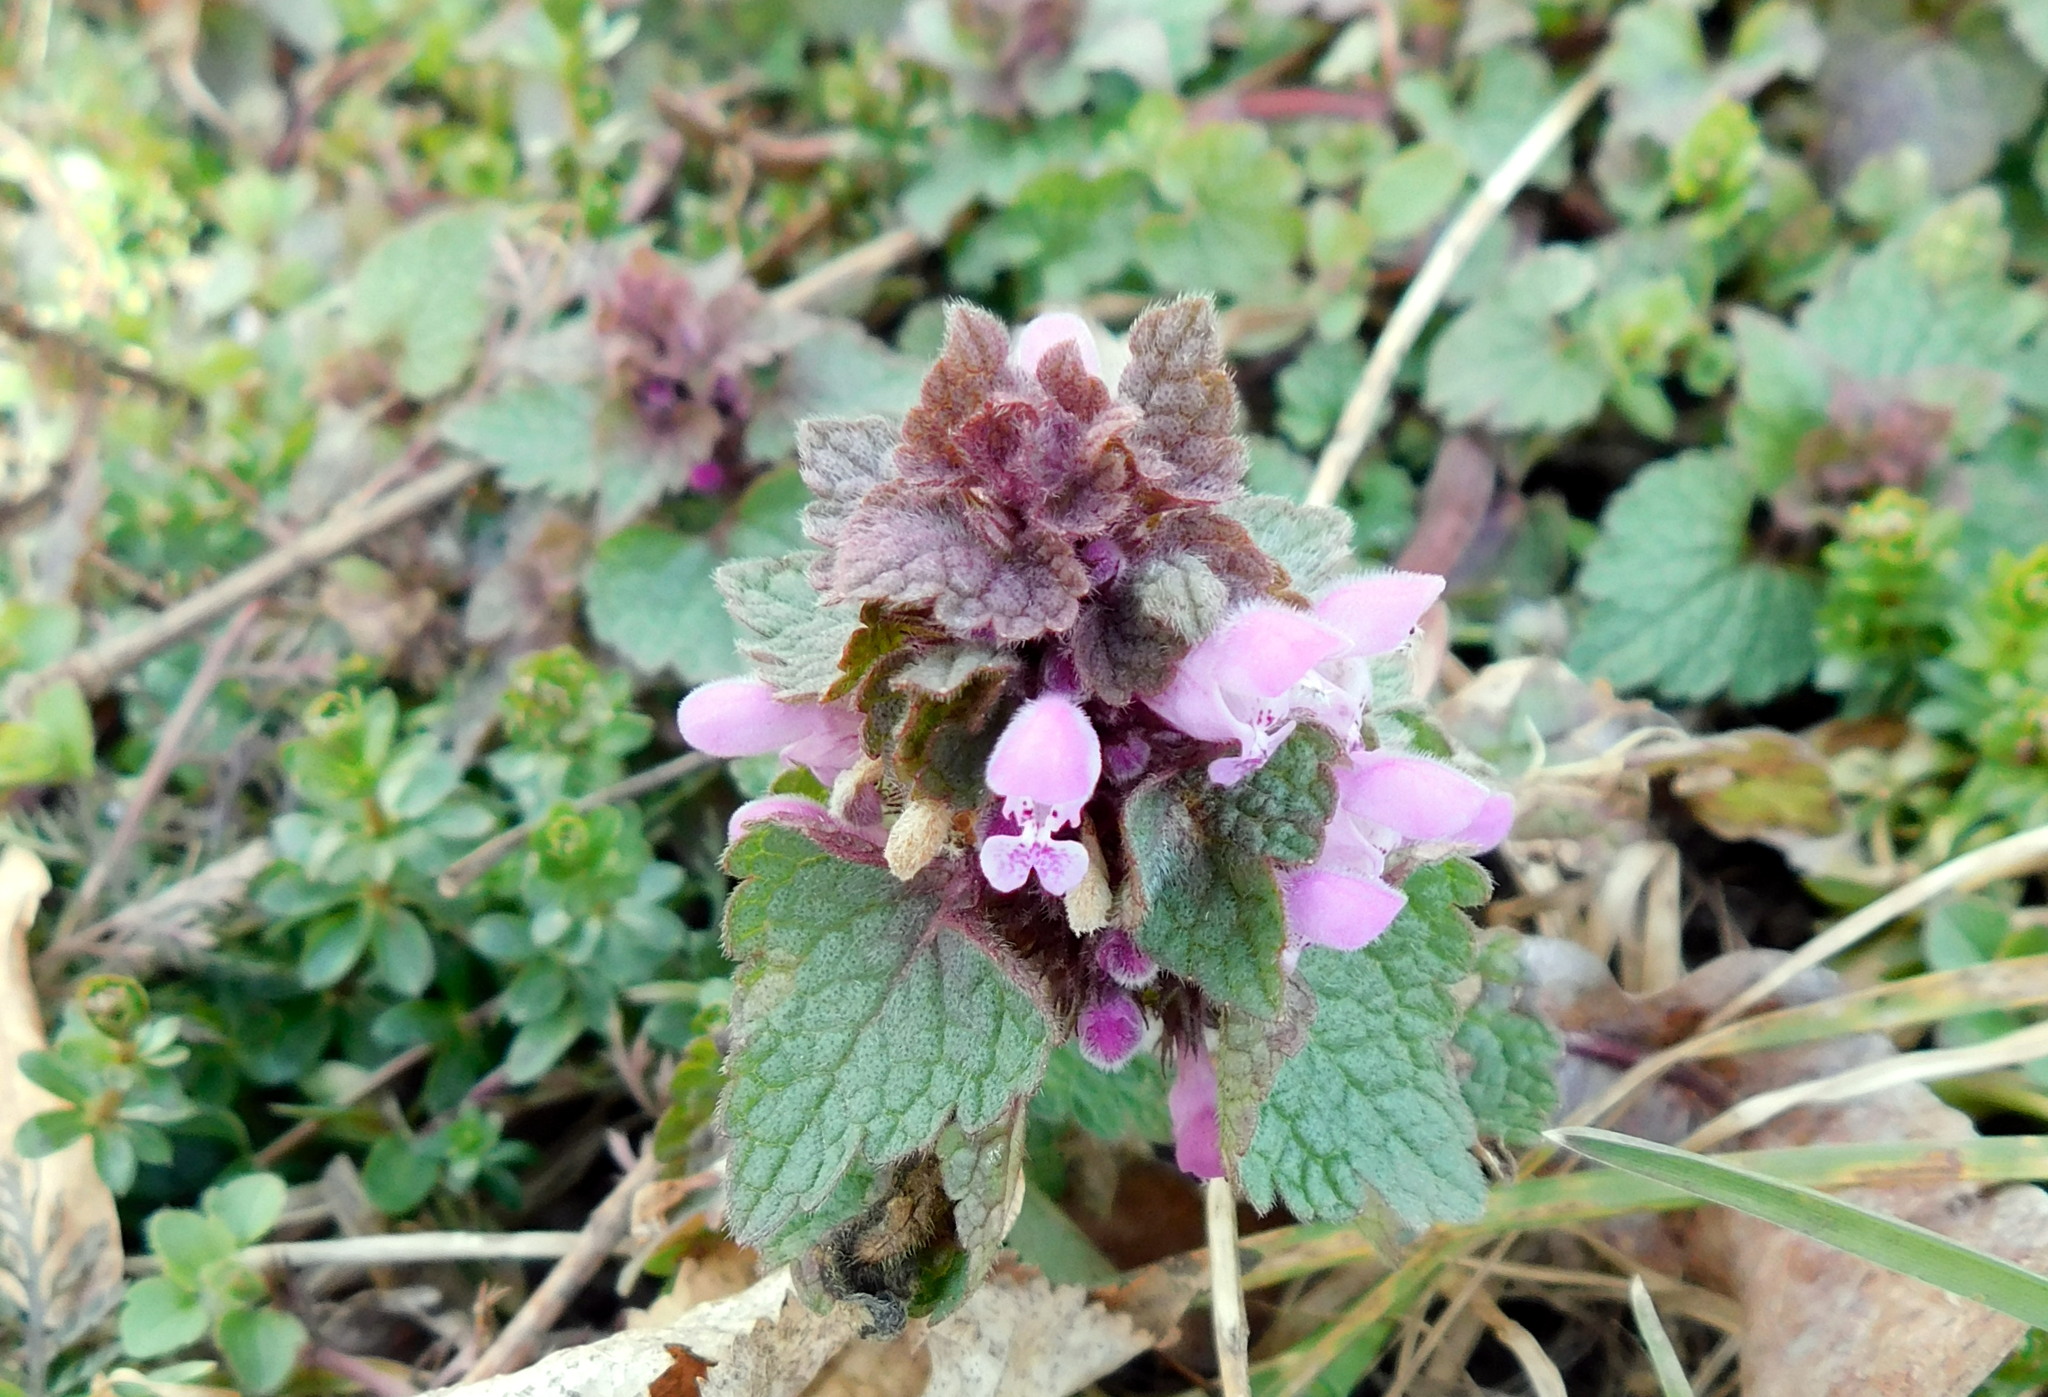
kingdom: Plantae
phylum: Tracheophyta
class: Magnoliopsida
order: Lamiales
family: Lamiaceae
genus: Lamium
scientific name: Lamium purpureum
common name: Red dead-nettle
